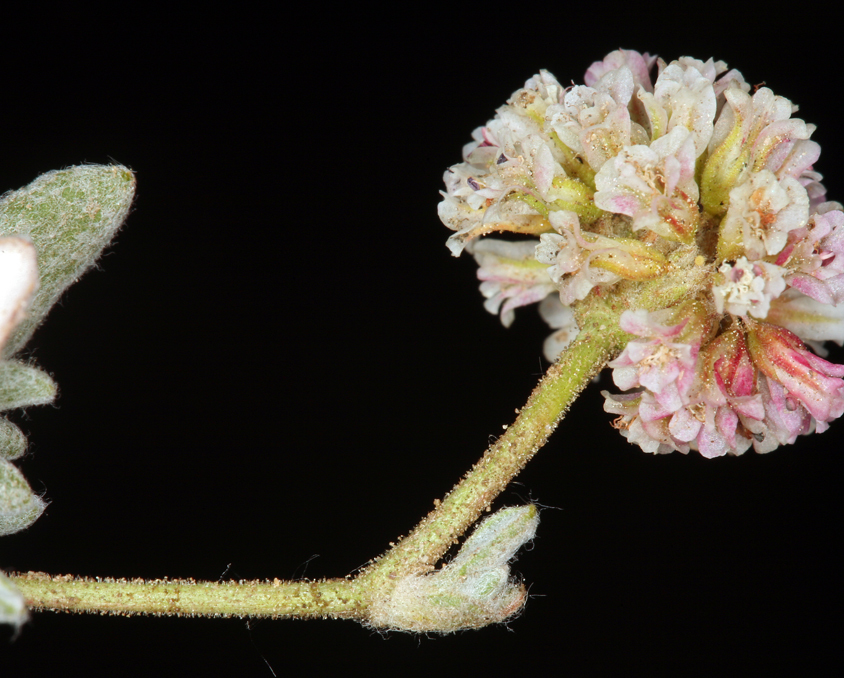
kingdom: Plantae
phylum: Tracheophyta
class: Magnoliopsida
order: Caryophyllales
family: Polygonaceae
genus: Eriogonum
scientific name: Eriogonum gracilipes
